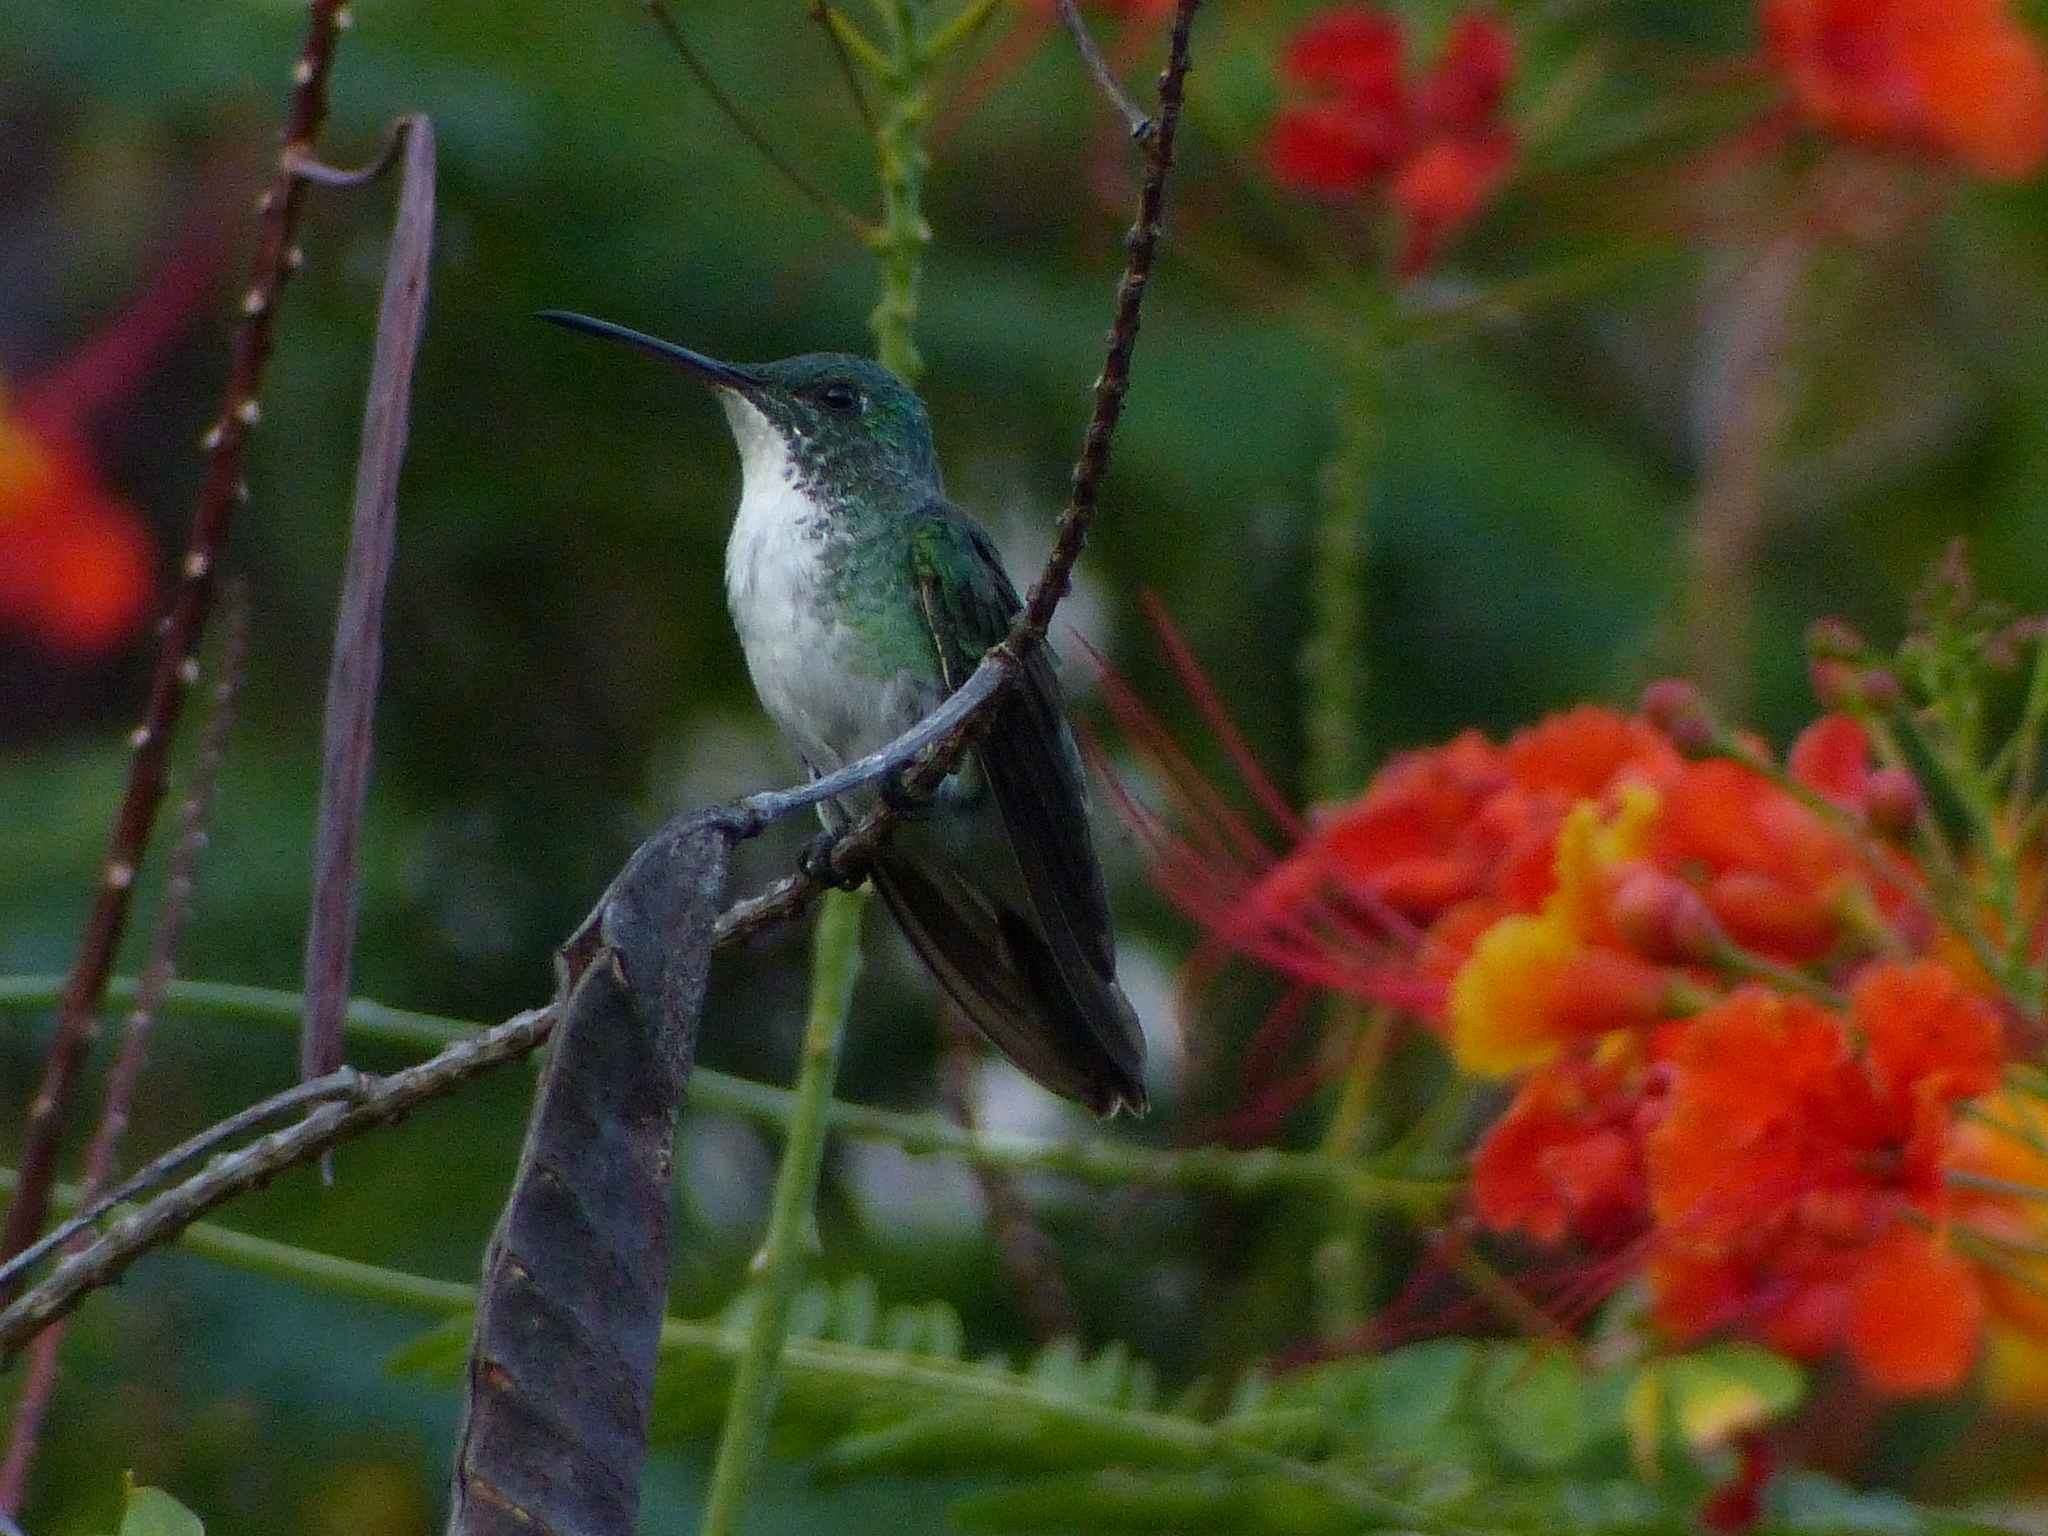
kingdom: Animalia
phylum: Chordata
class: Aves
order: Apodiformes
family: Trochilidae
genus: Chrysuronia
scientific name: Chrysuronia leucogaster
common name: Plain-bellied emerald
